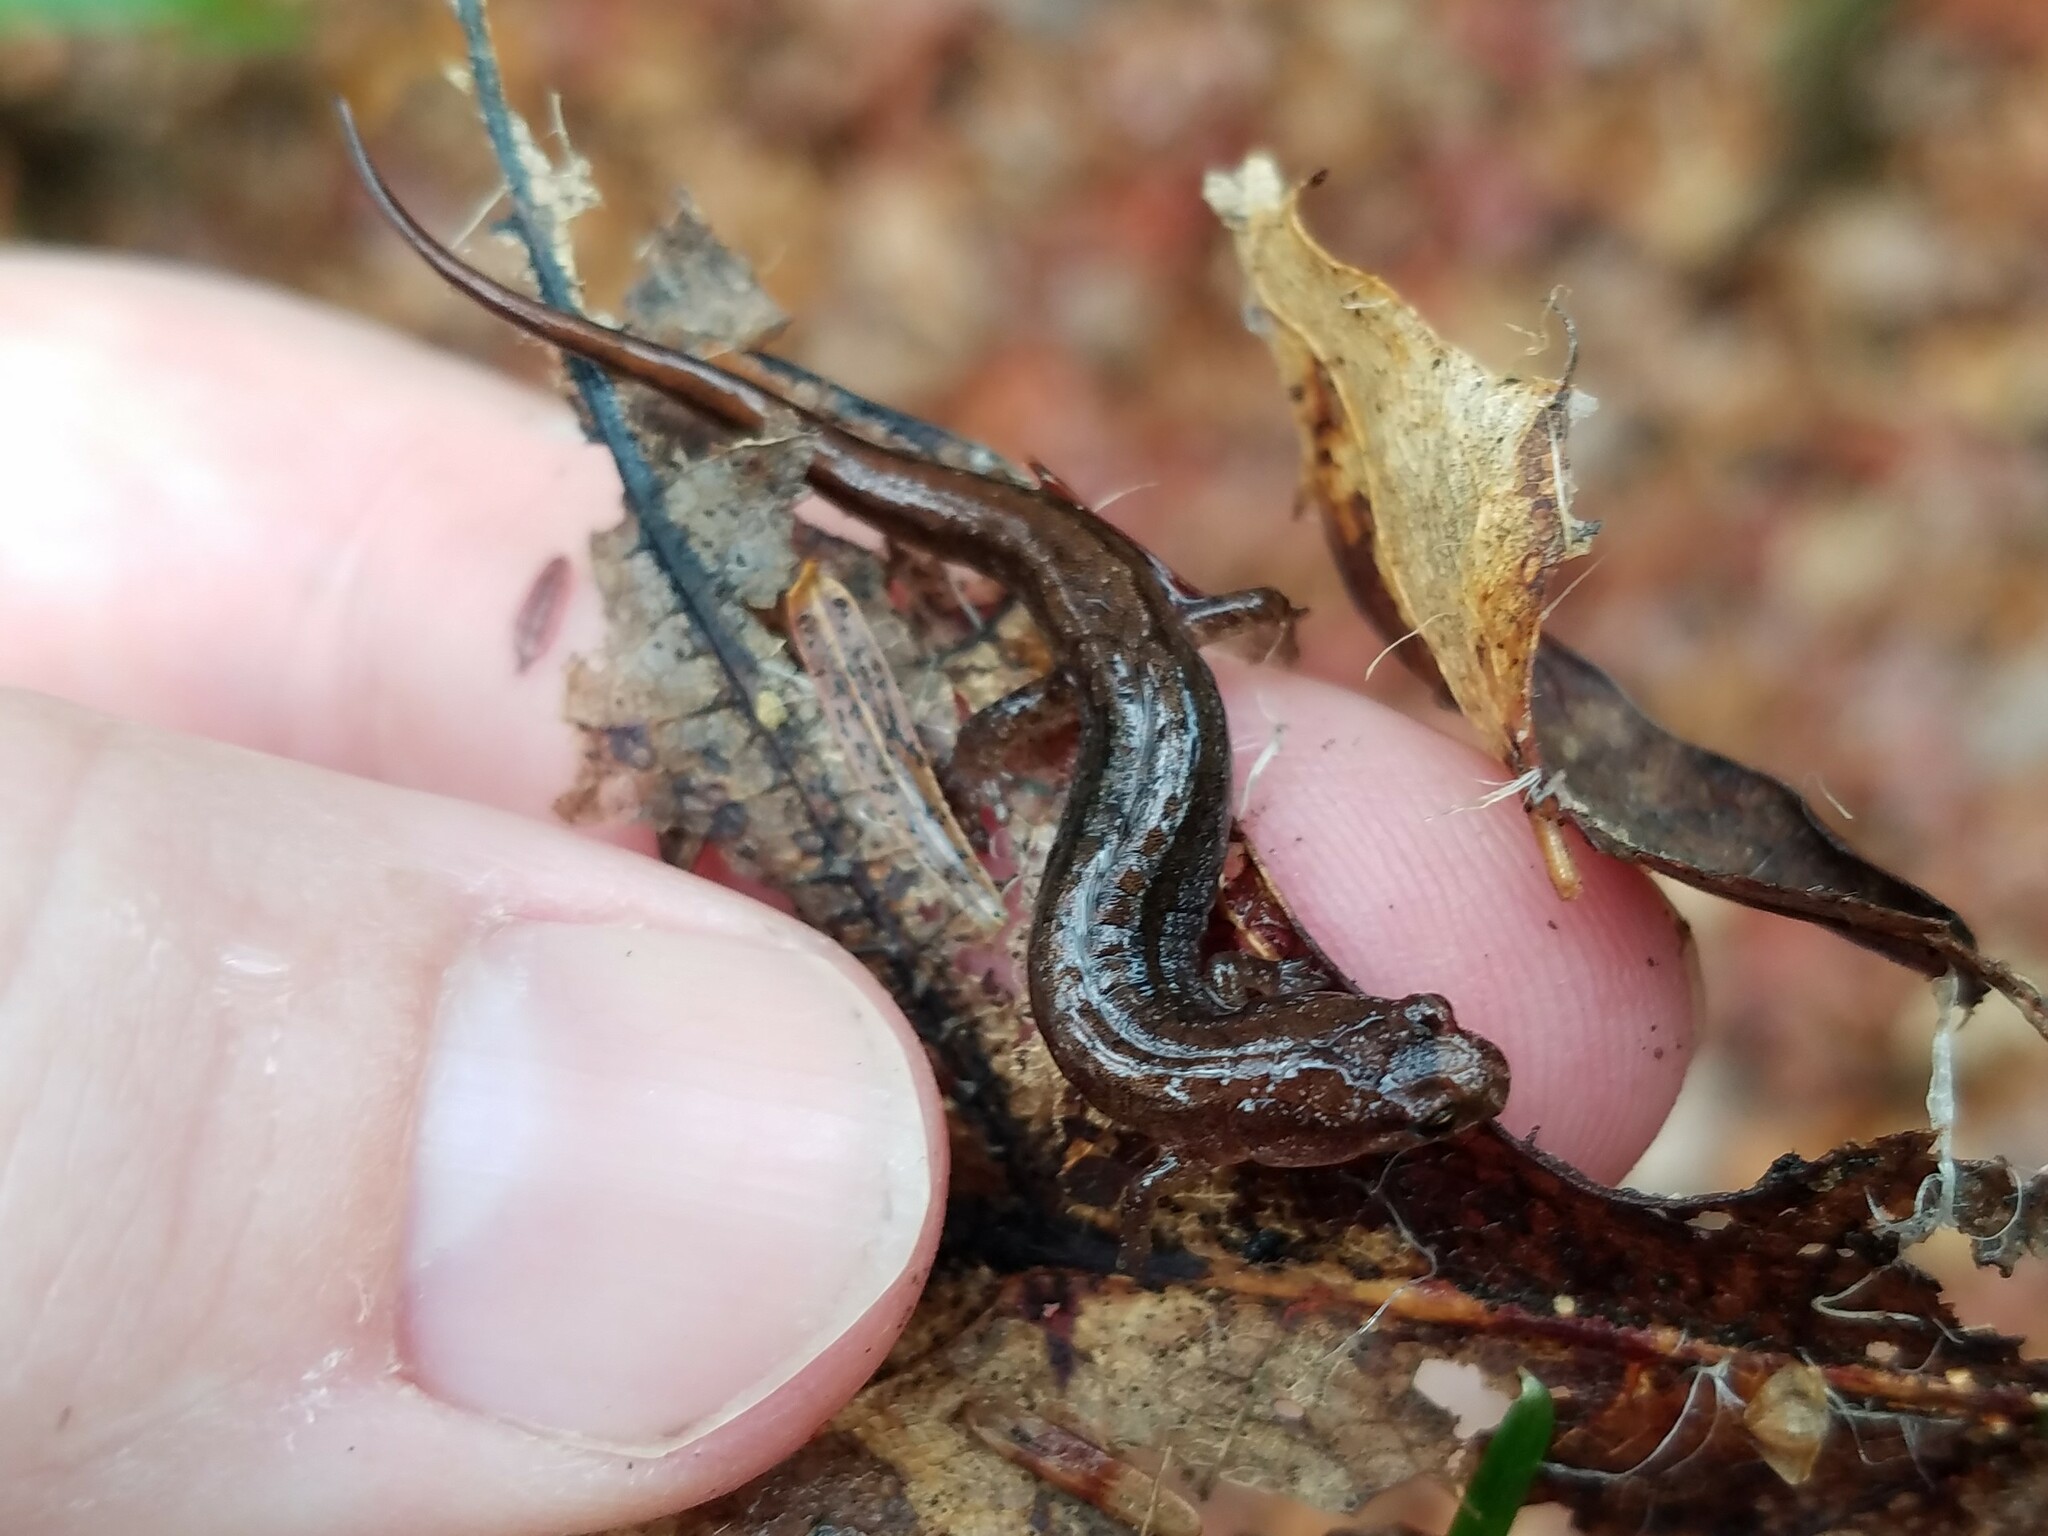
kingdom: Animalia
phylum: Chordata
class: Amphibia
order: Caudata
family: Plethodontidae
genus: Desmognathus
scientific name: Desmognathus aeneus
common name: Seepage salamander
